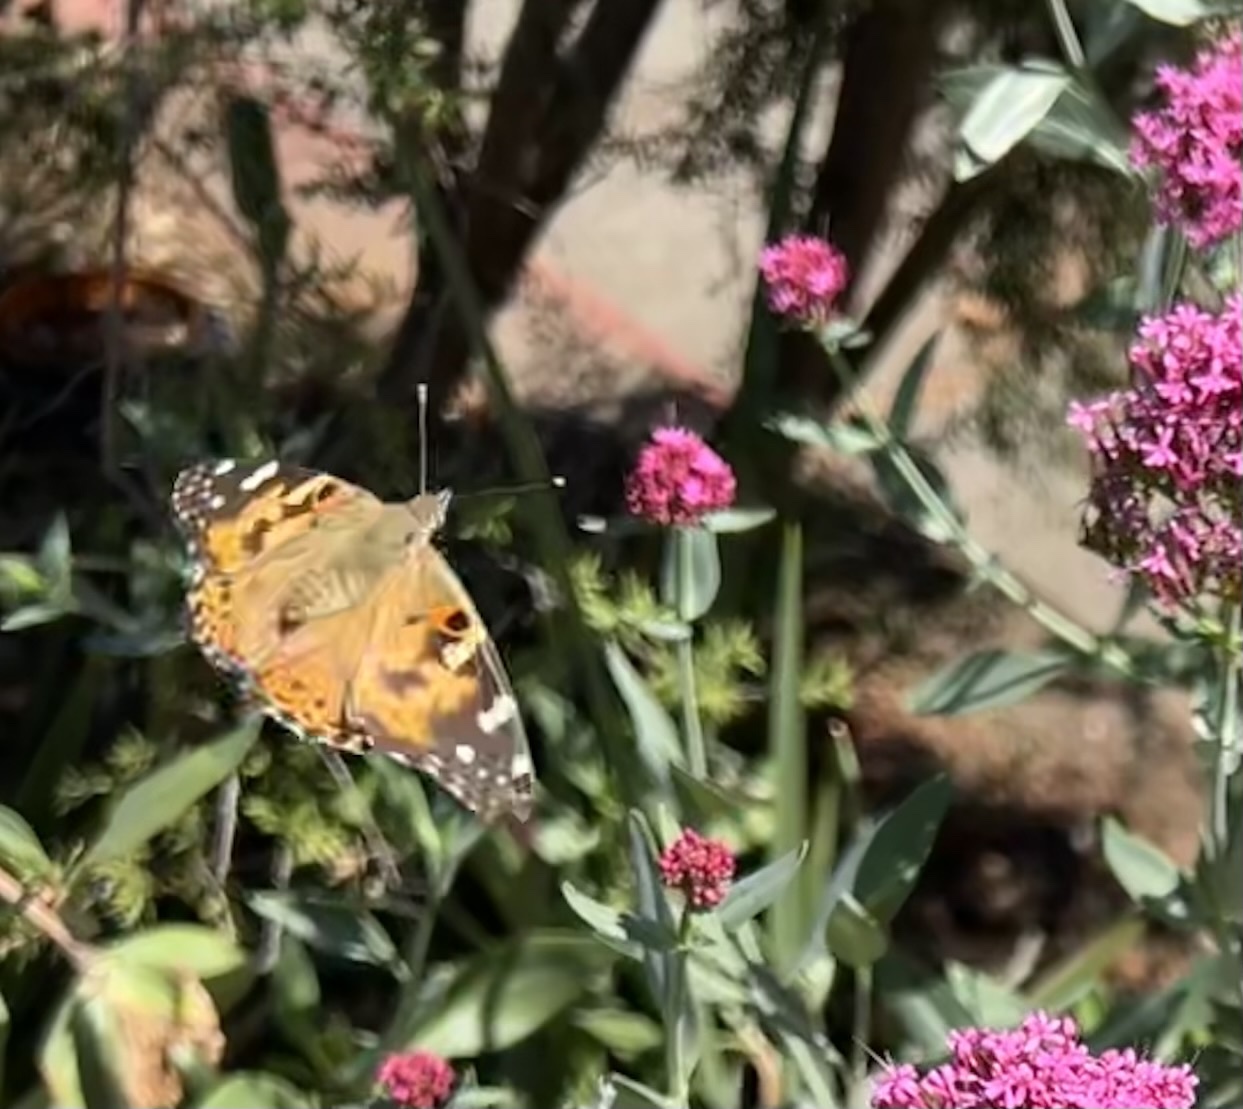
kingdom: Animalia
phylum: Arthropoda
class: Insecta
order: Lepidoptera
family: Nymphalidae
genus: Vanessa
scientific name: Vanessa cardui
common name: Painted lady
